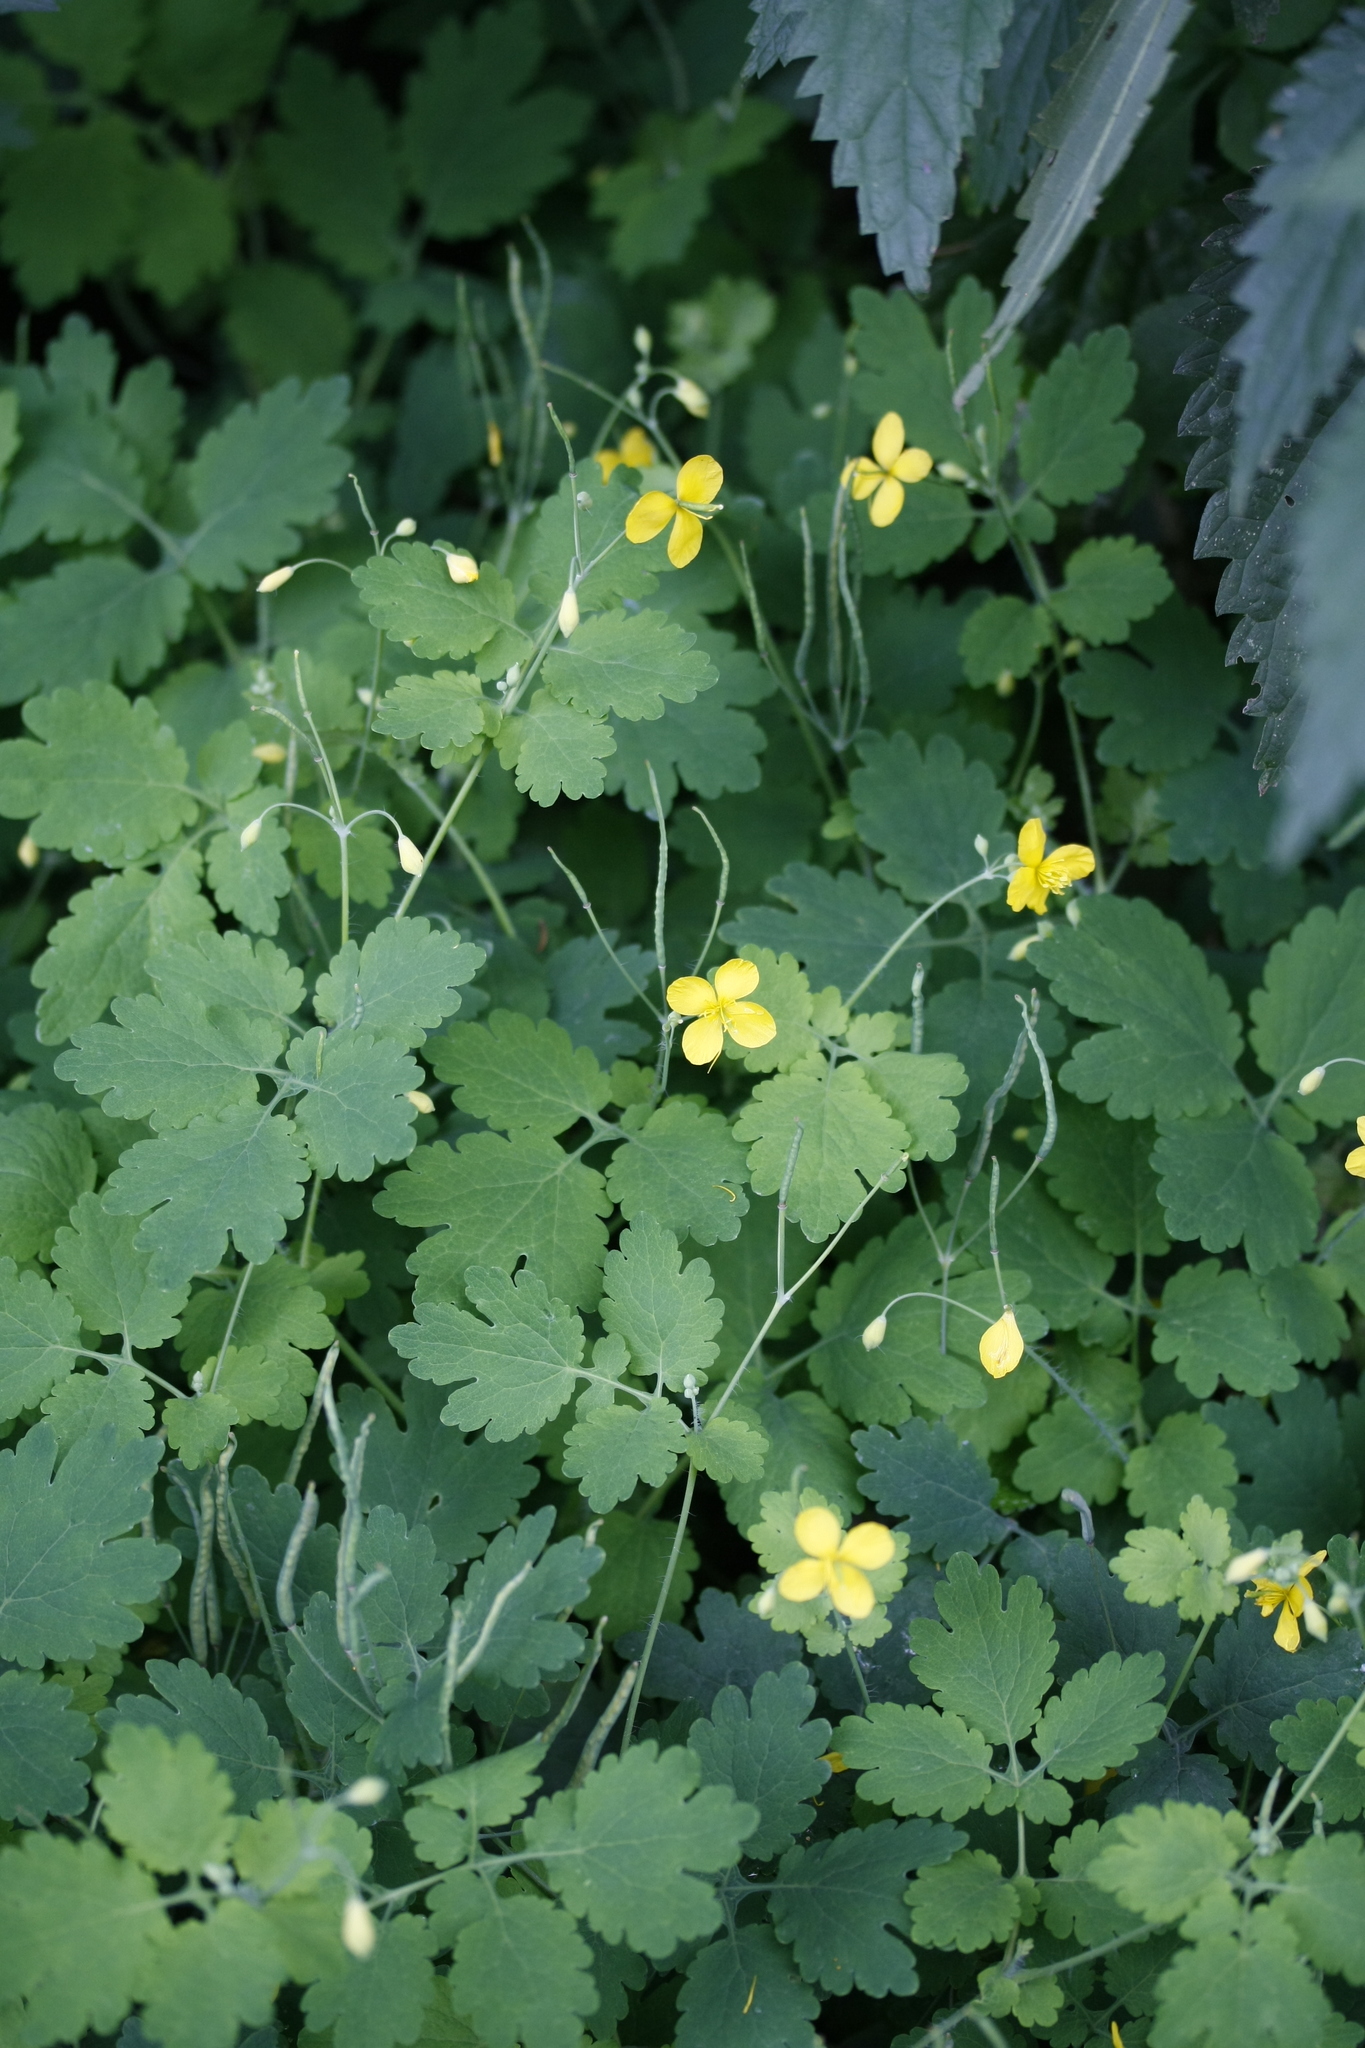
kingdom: Plantae
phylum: Tracheophyta
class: Magnoliopsida
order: Ranunculales
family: Papaveraceae
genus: Chelidonium
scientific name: Chelidonium majus
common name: Greater celandine
